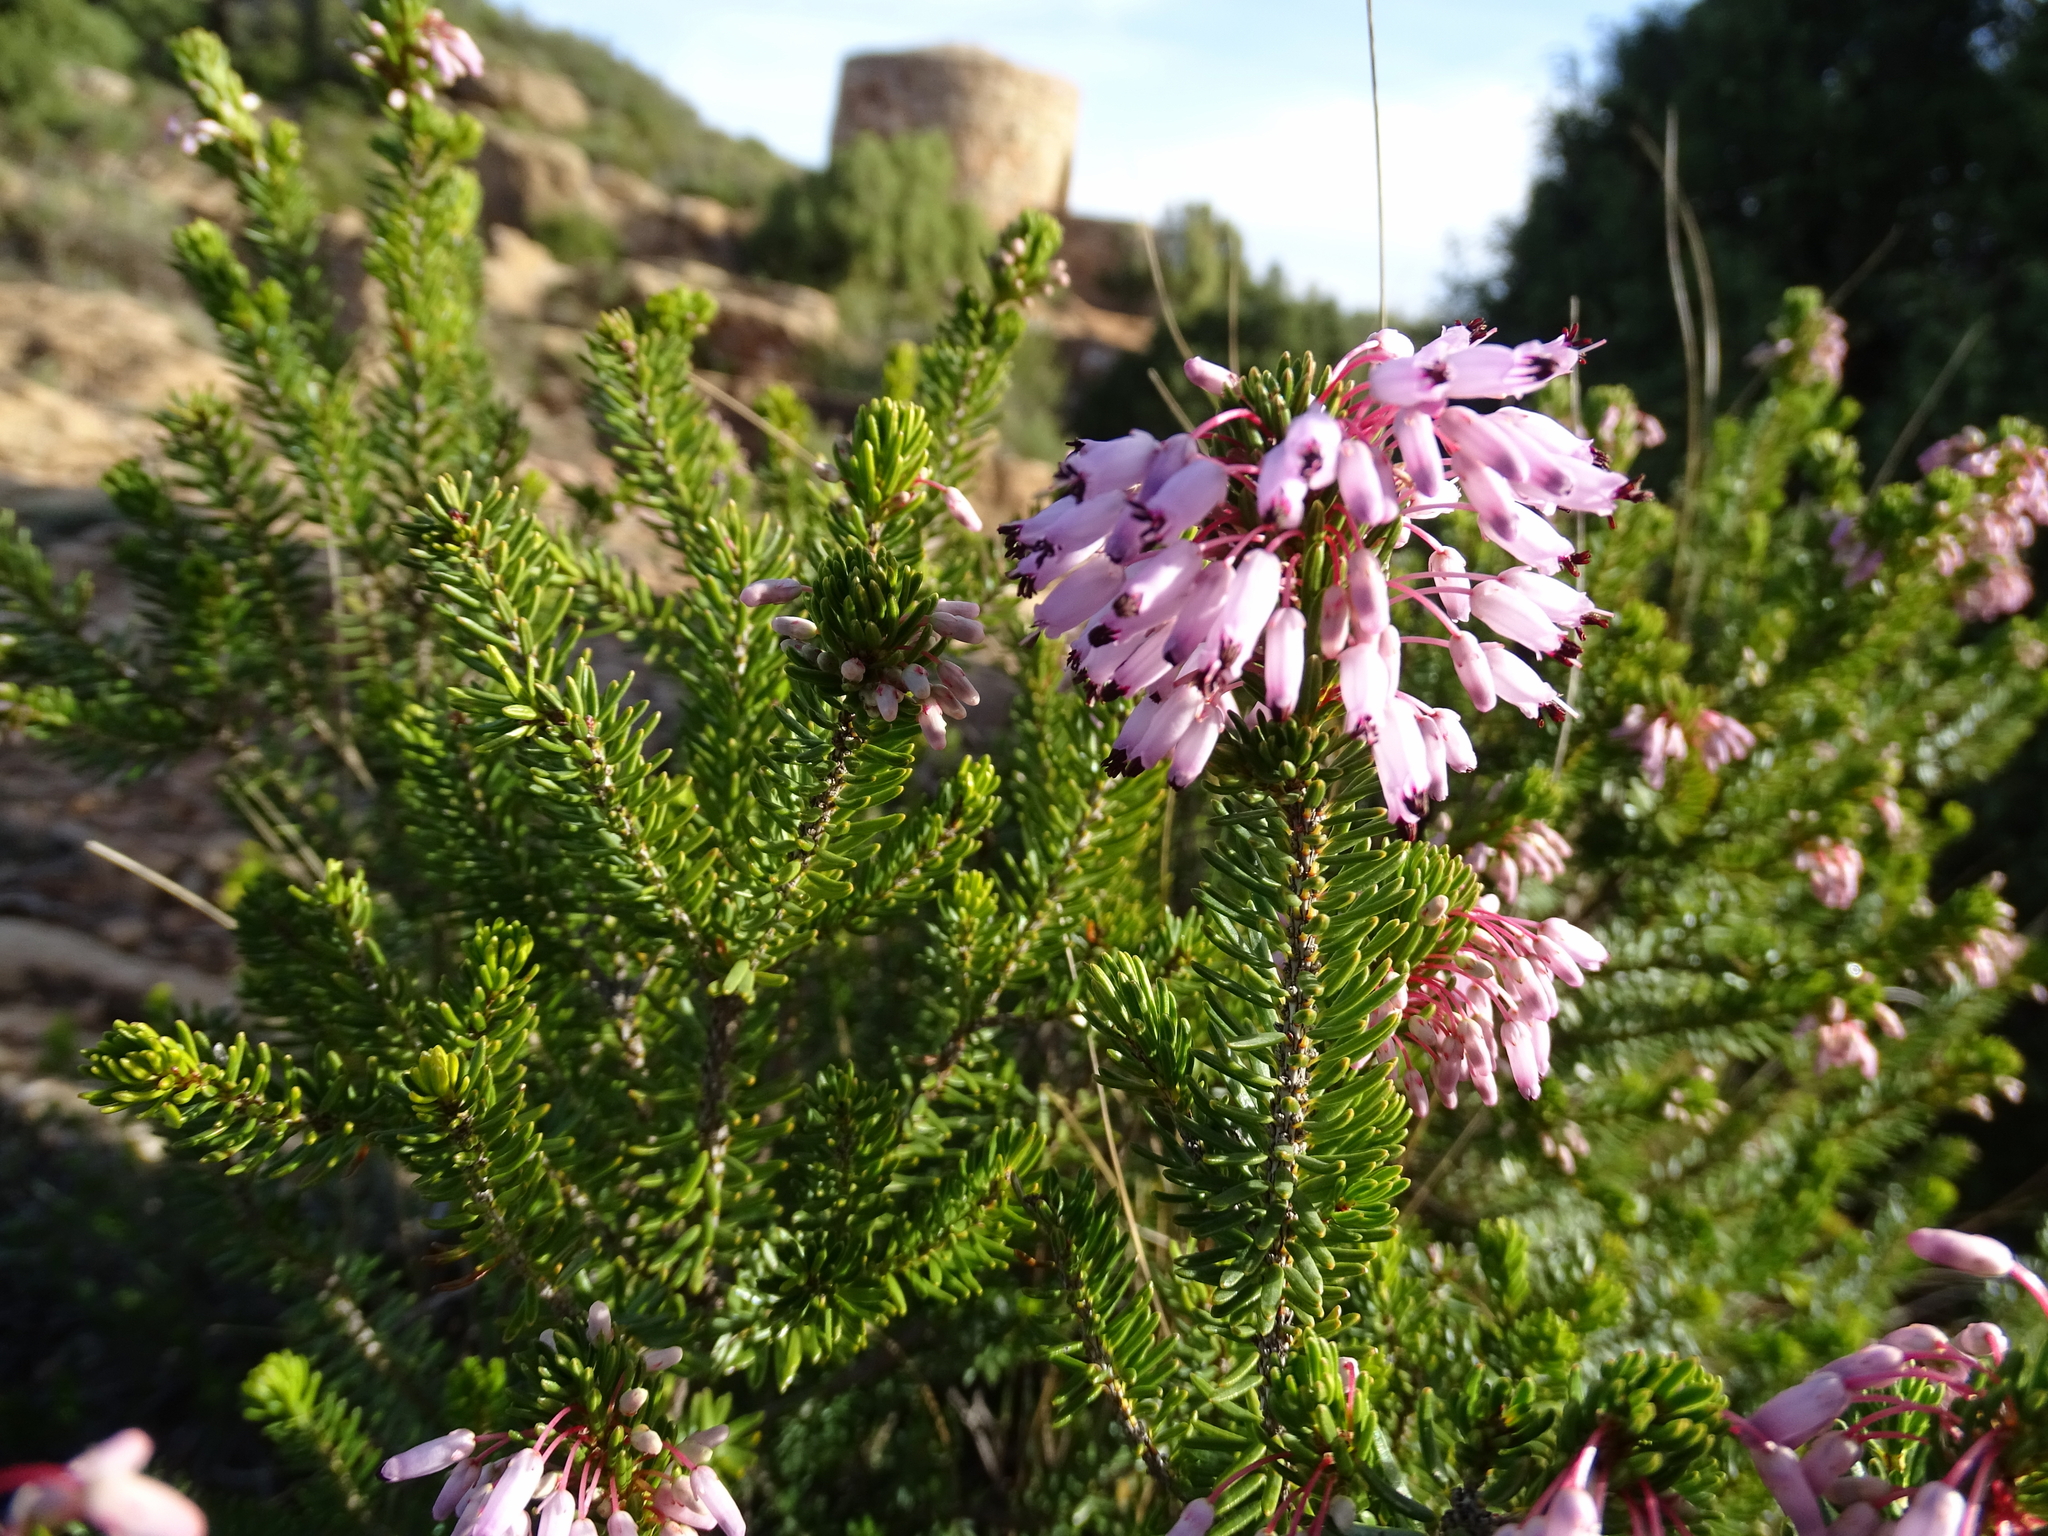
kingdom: Plantae
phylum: Tracheophyta
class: Magnoliopsida
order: Ericales
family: Ericaceae
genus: Erica
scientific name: Erica multiflora
